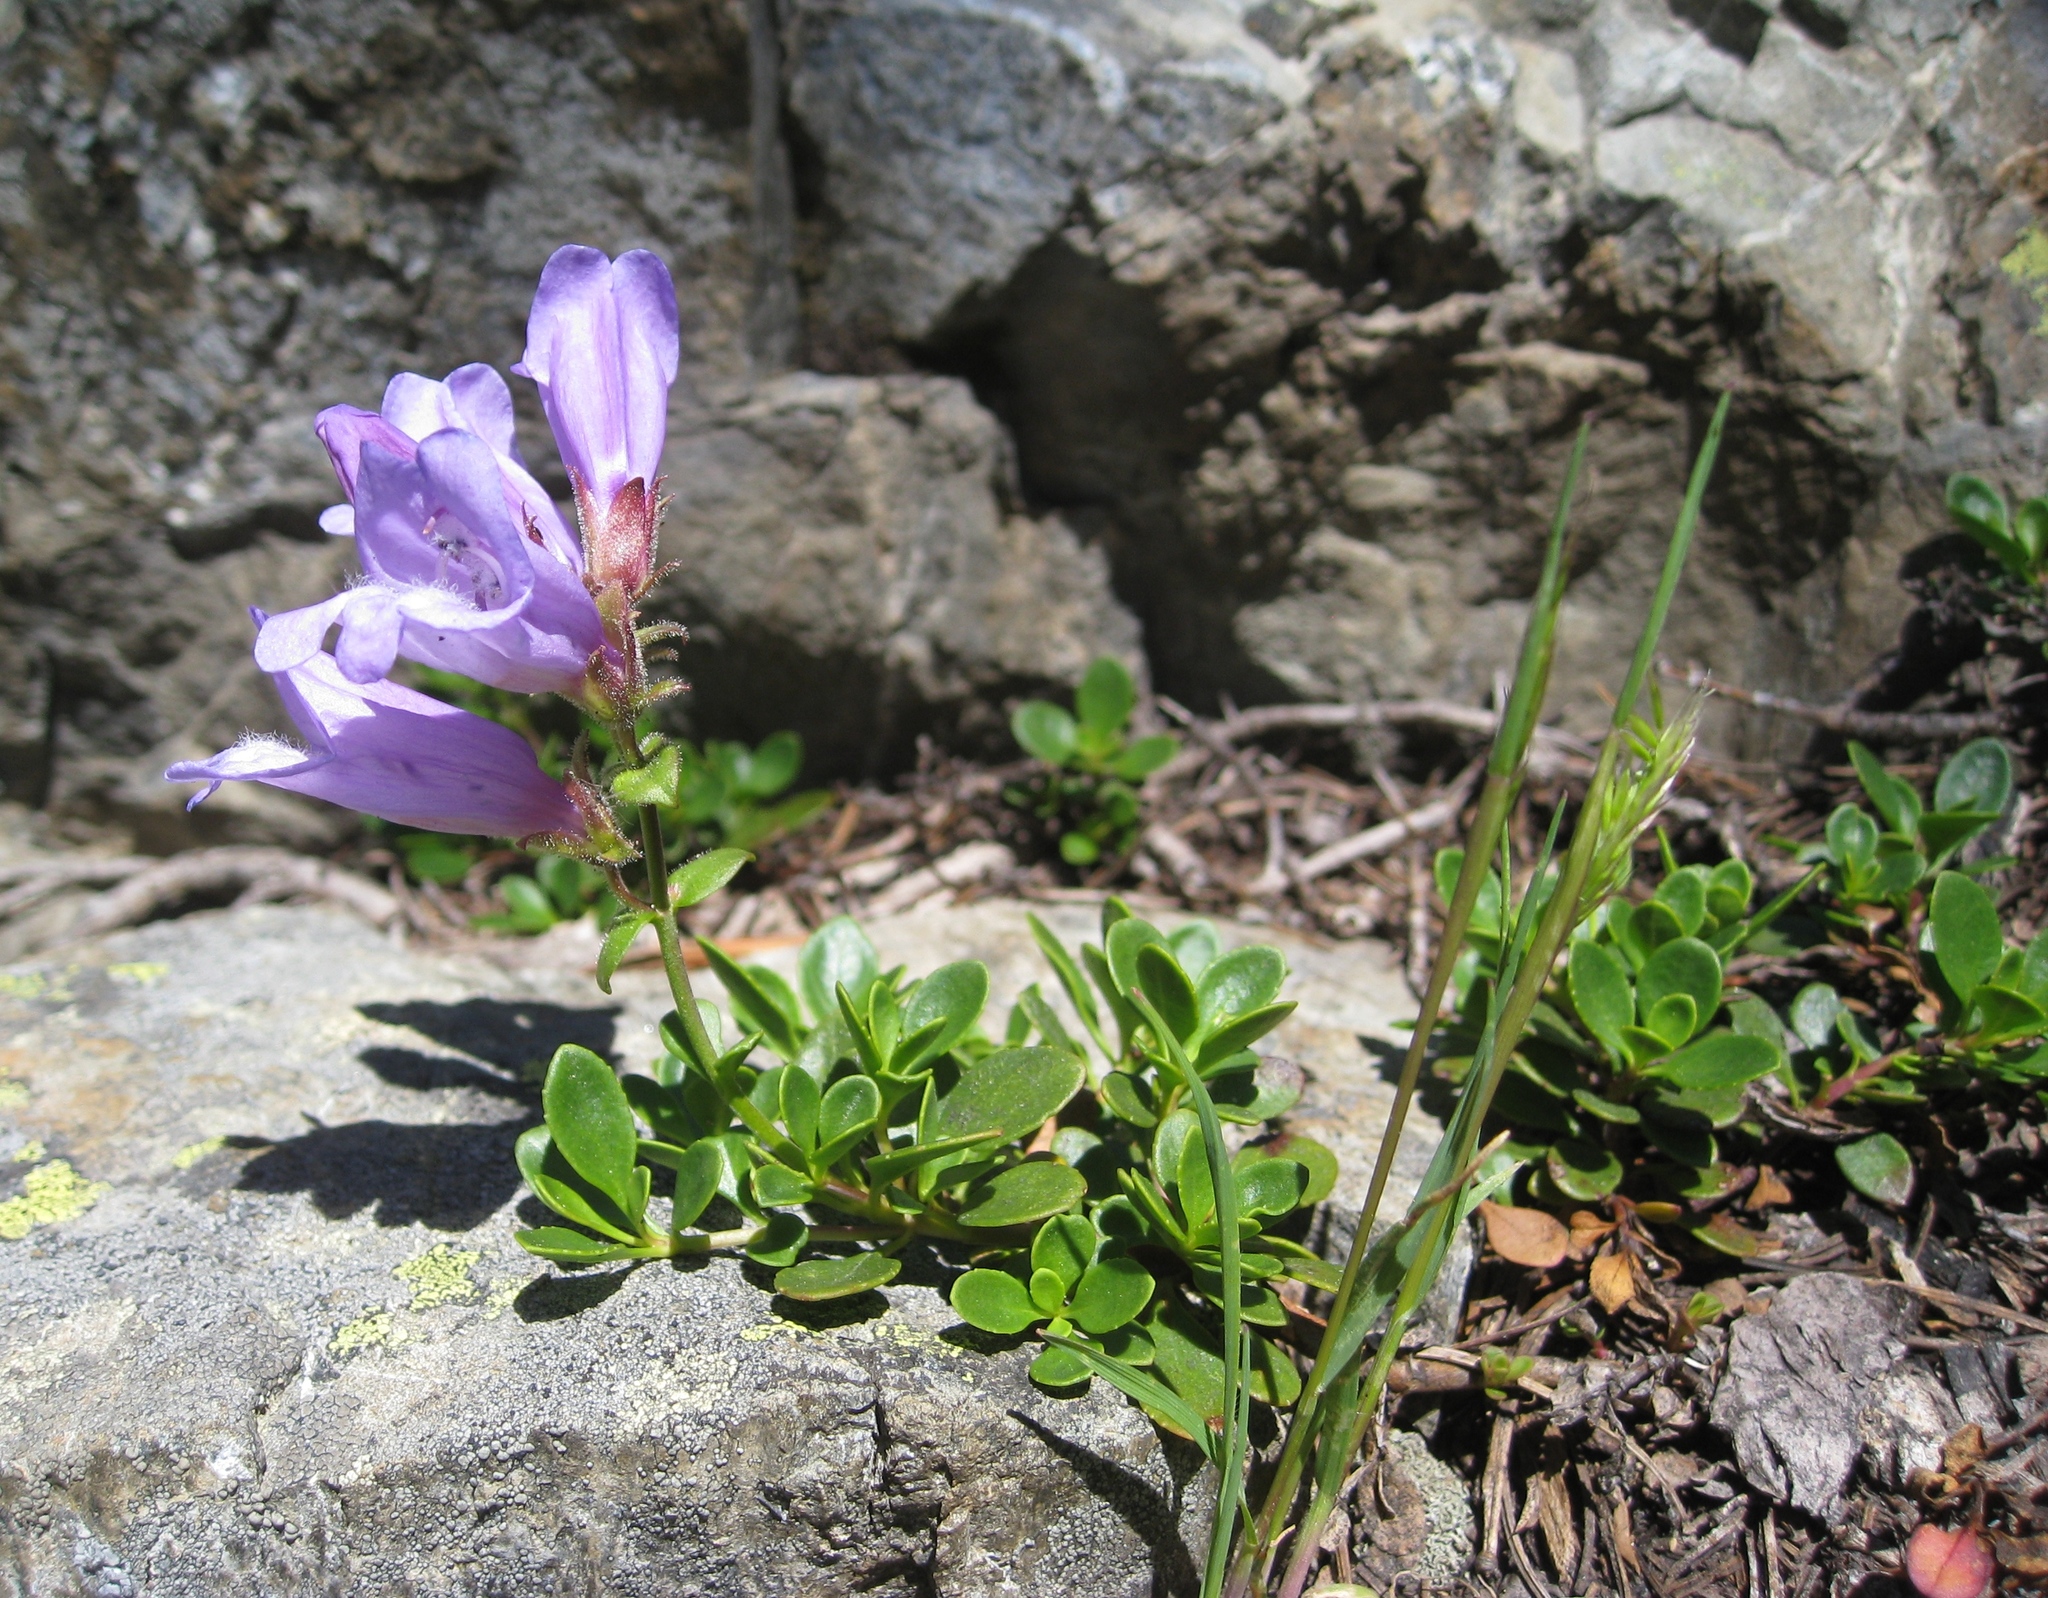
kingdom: Plantae
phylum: Tracheophyta
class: Magnoliopsida
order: Lamiales
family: Plantaginaceae
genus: Penstemon
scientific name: Penstemon davidsonii
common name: Davidson's penstemon
